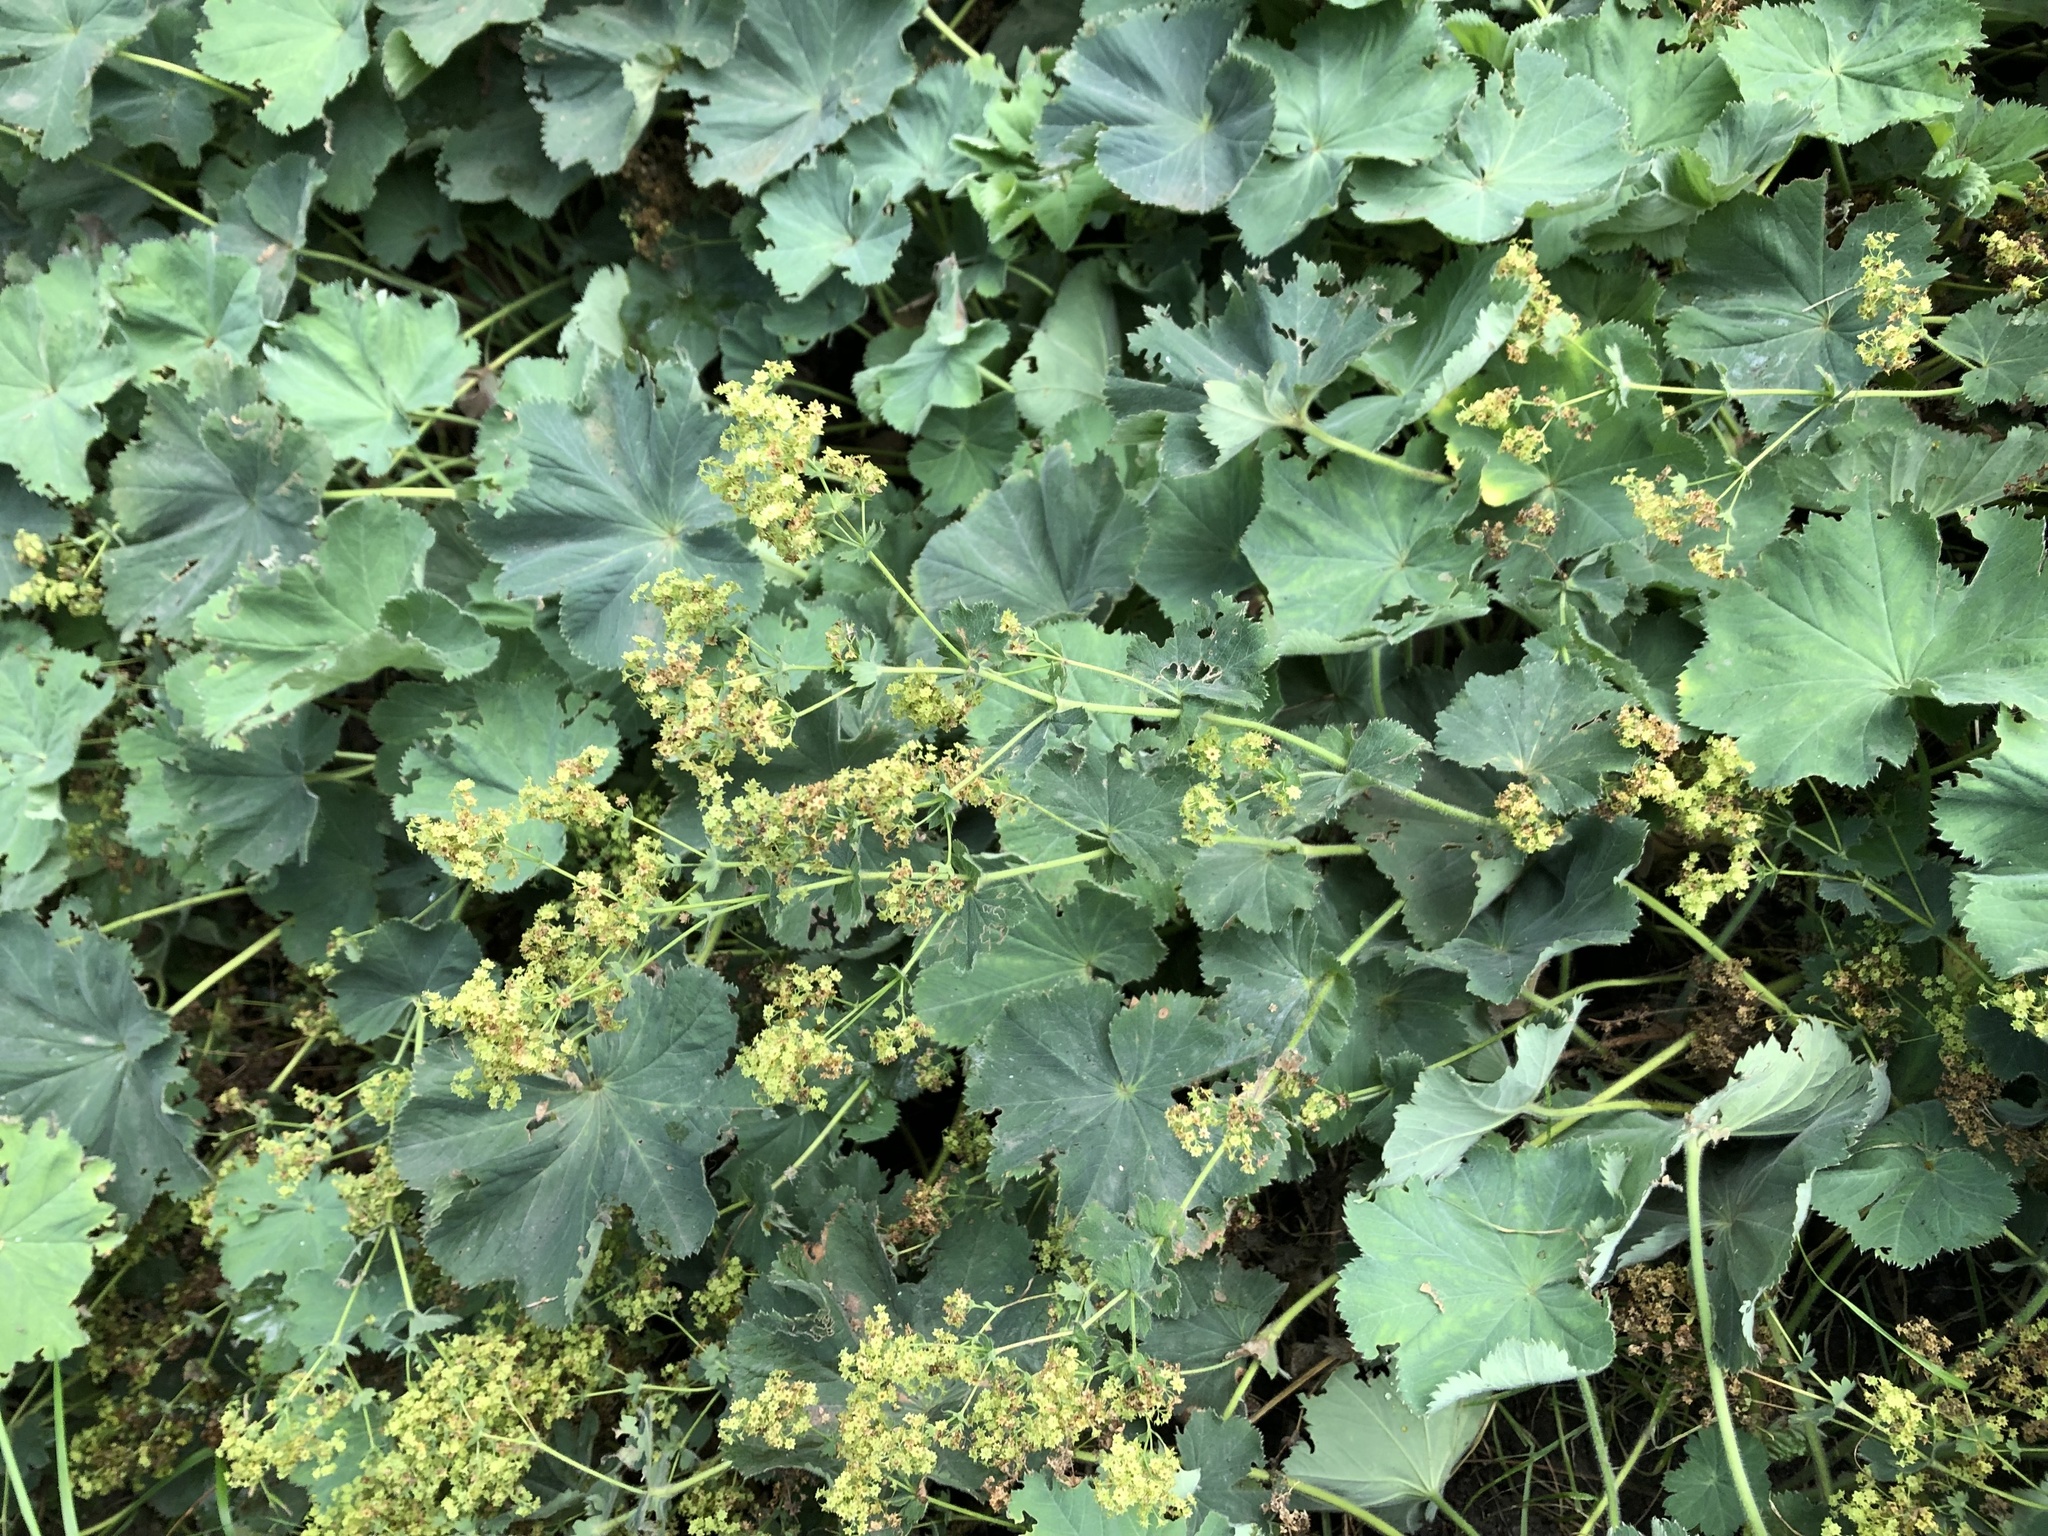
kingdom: Plantae
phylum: Tracheophyta
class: Magnoliopsida
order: Rosales
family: Rosaceae
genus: Alchemilla
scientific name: Alchemilla mollis
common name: Lady's-mantle
